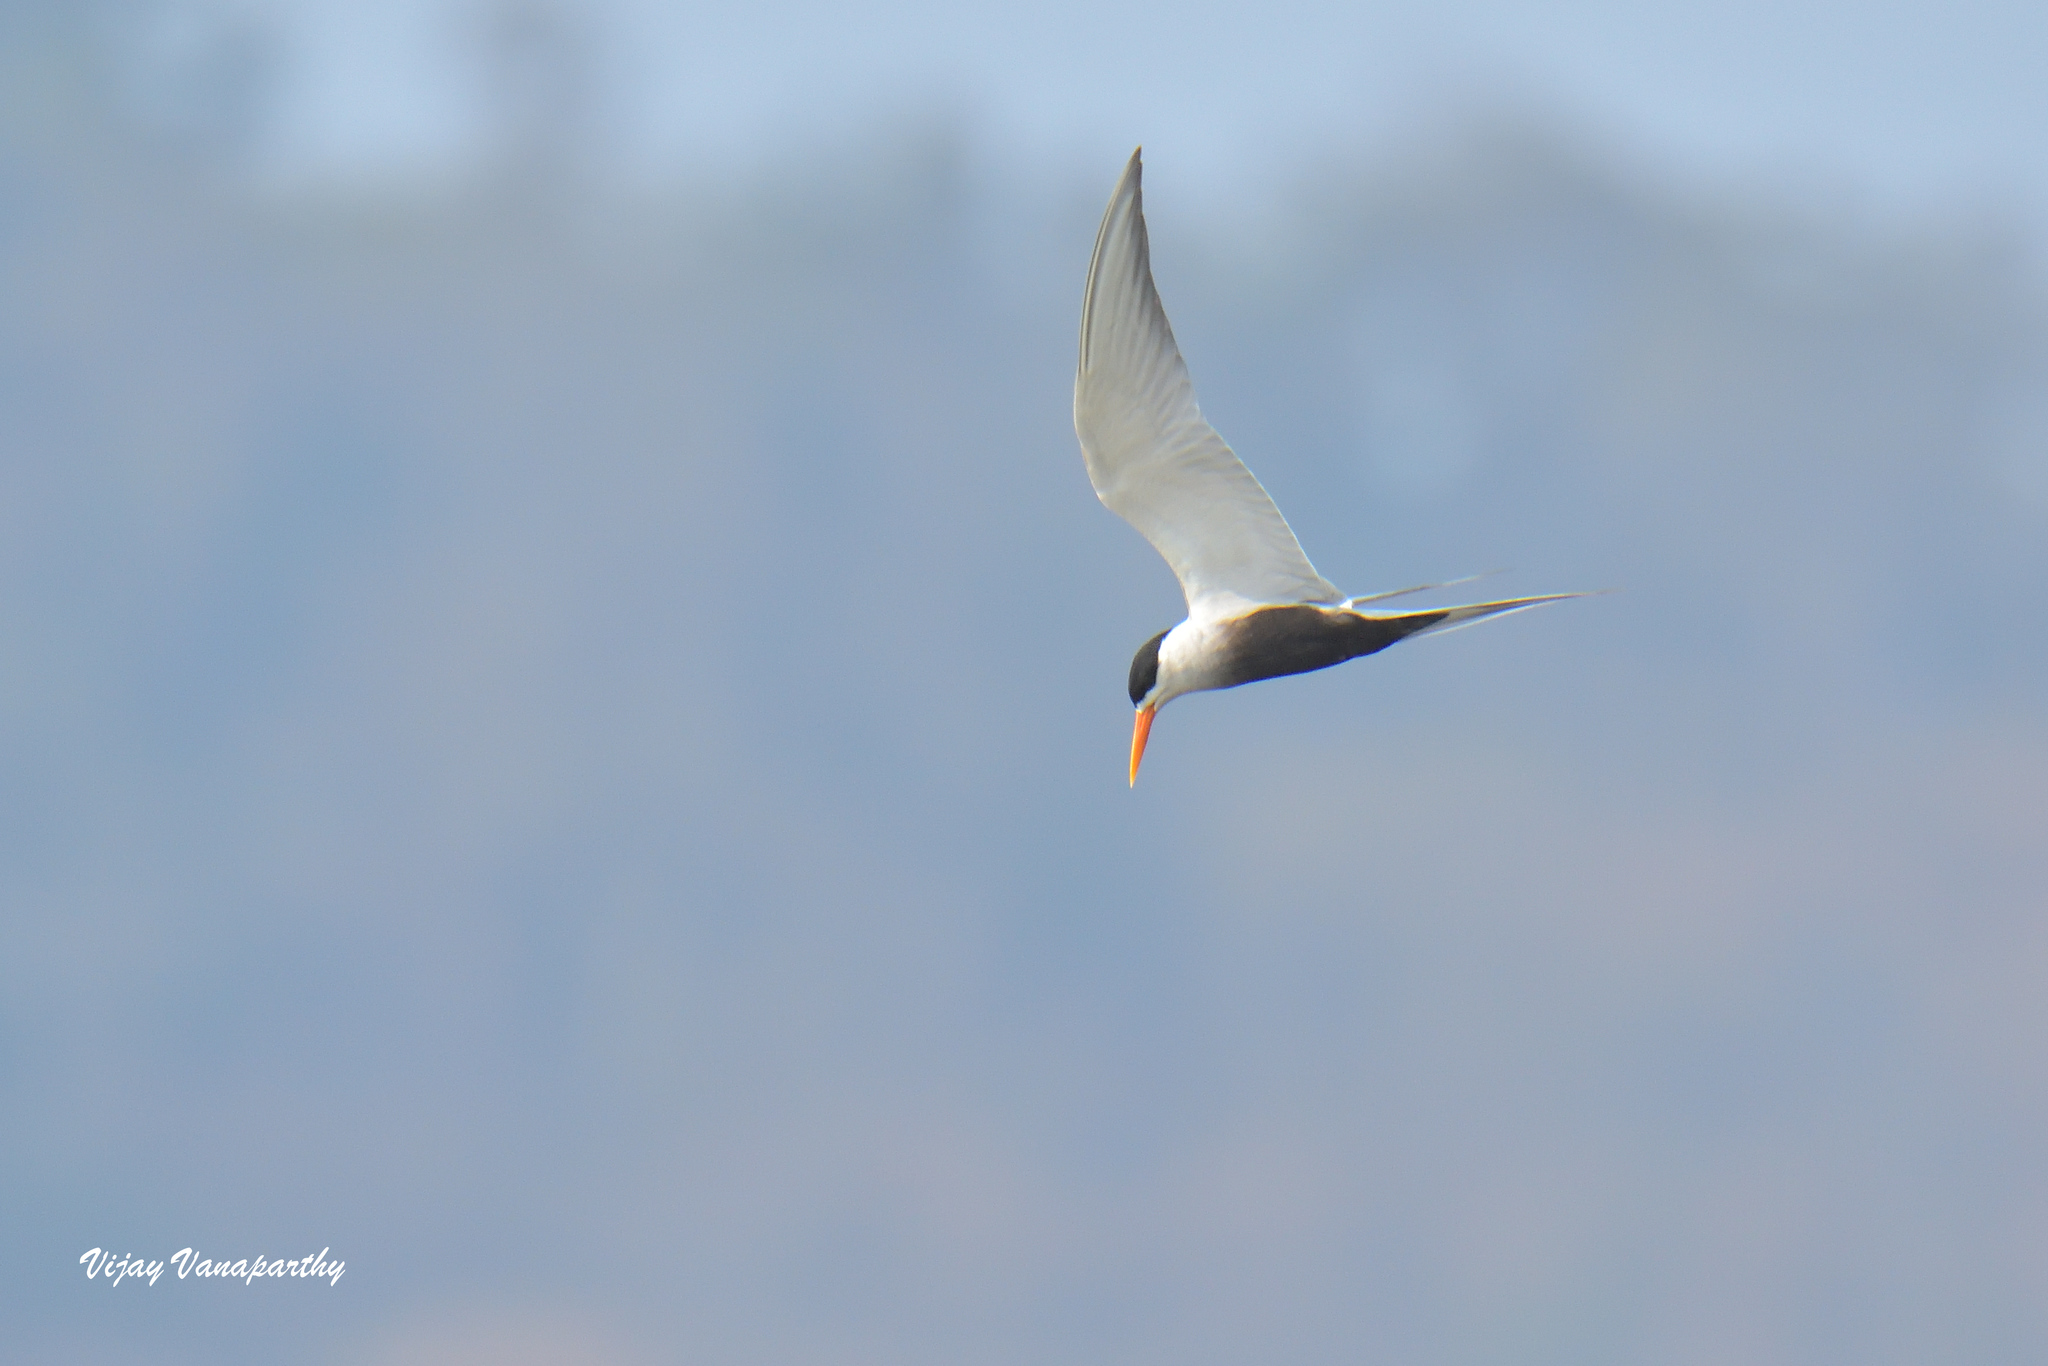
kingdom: Animalia
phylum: Chordata
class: Aves
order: Charadriiformes
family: Laridae
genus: Sterna
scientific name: Sterna acuticauda
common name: Black-bellied tern
